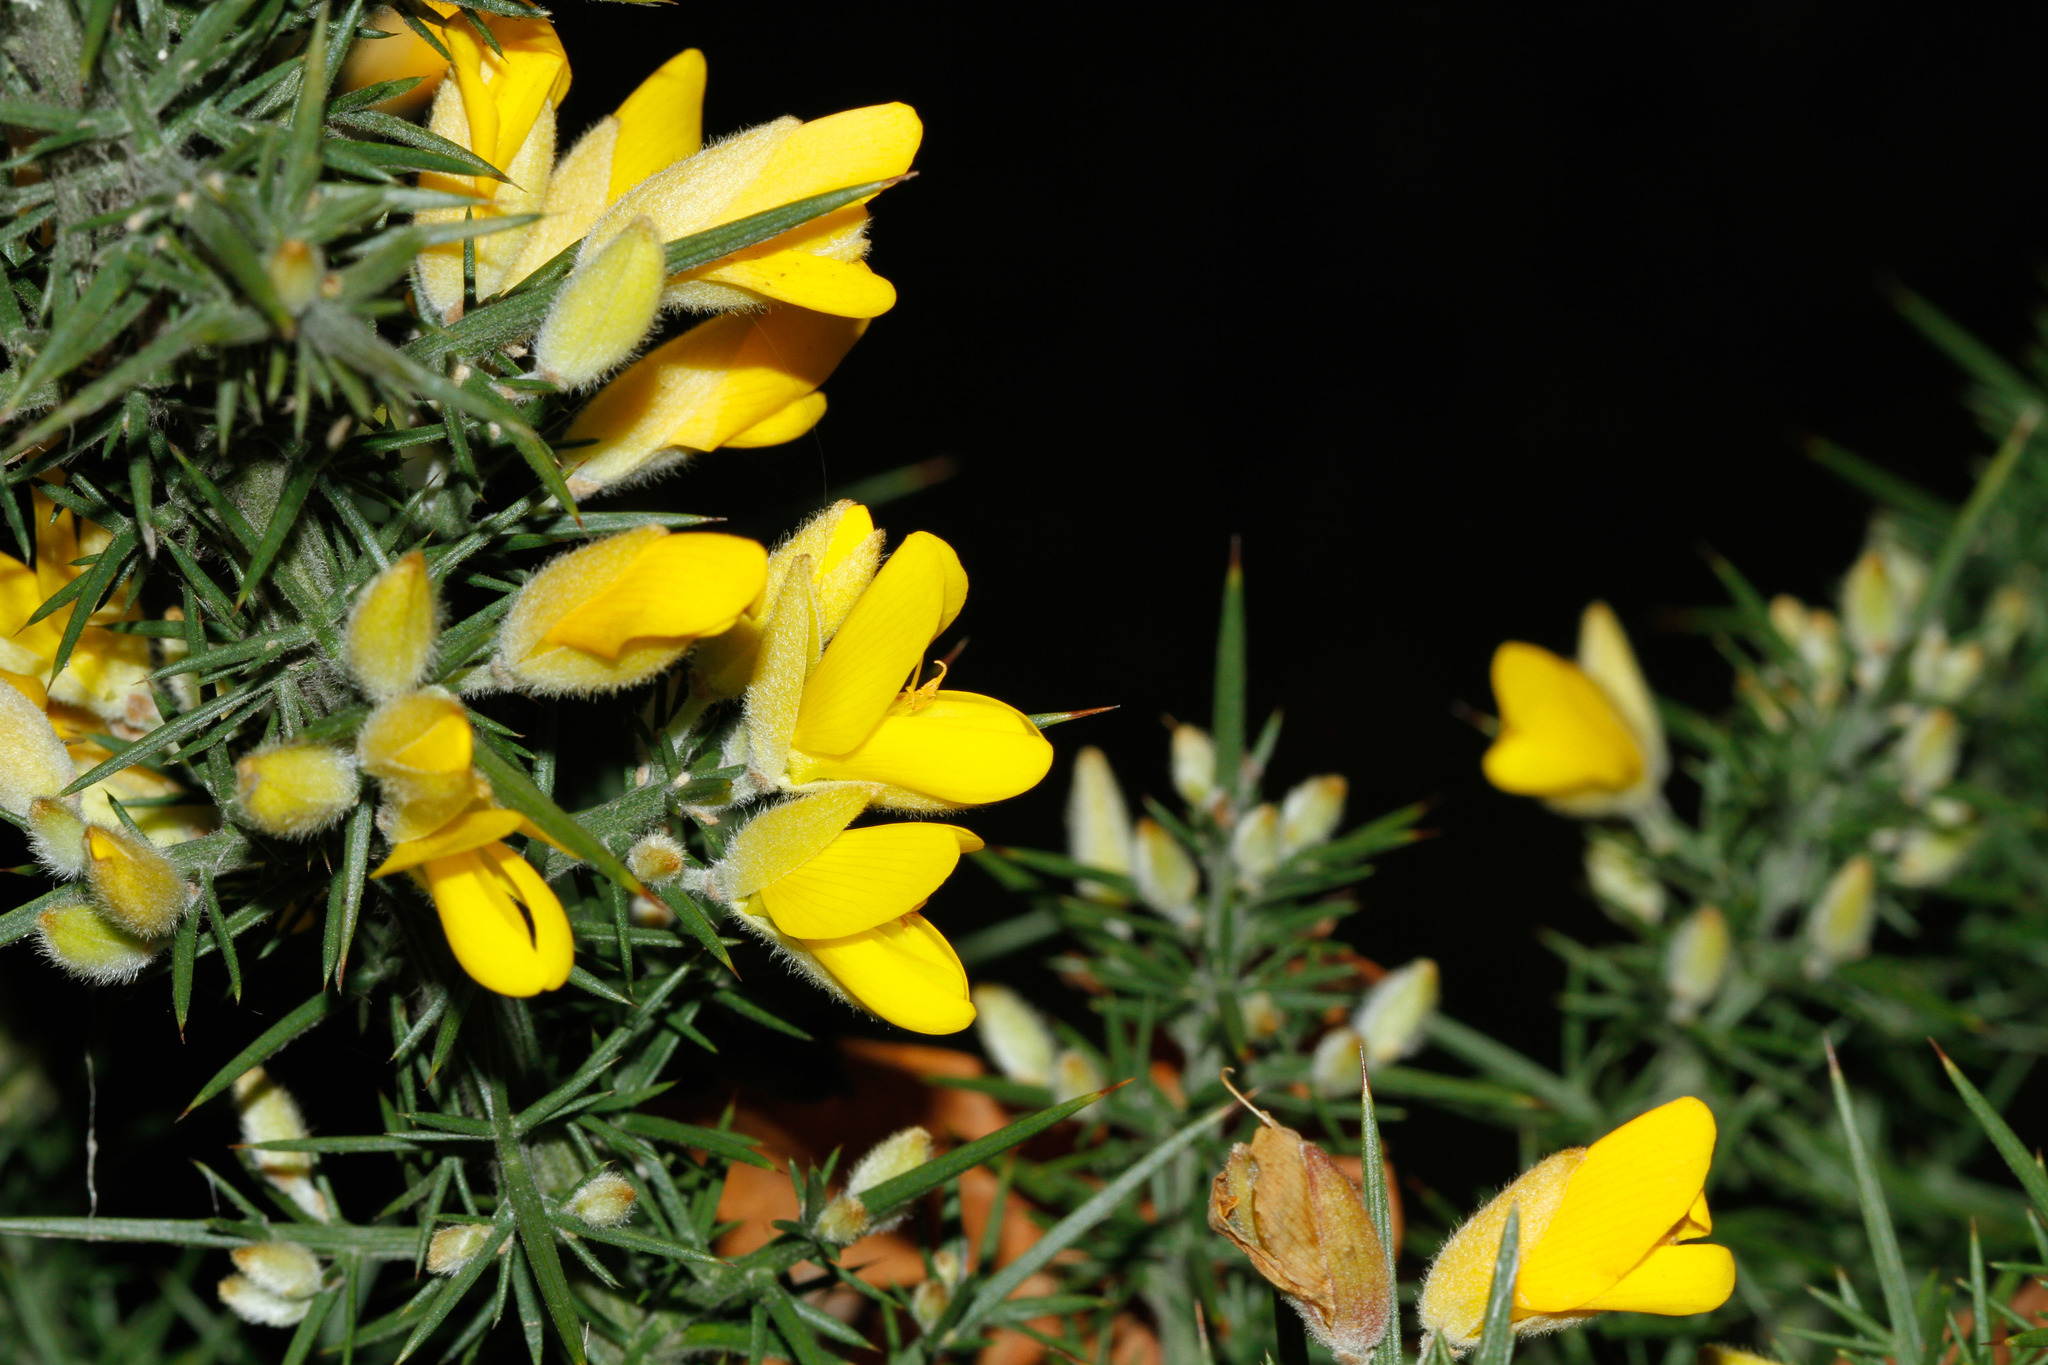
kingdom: Plantae
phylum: Tracheophyta
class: Magnoliopsida
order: Fabales
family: Fabaceae
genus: Ulex
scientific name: Ulex europaeus
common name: Common gorse
